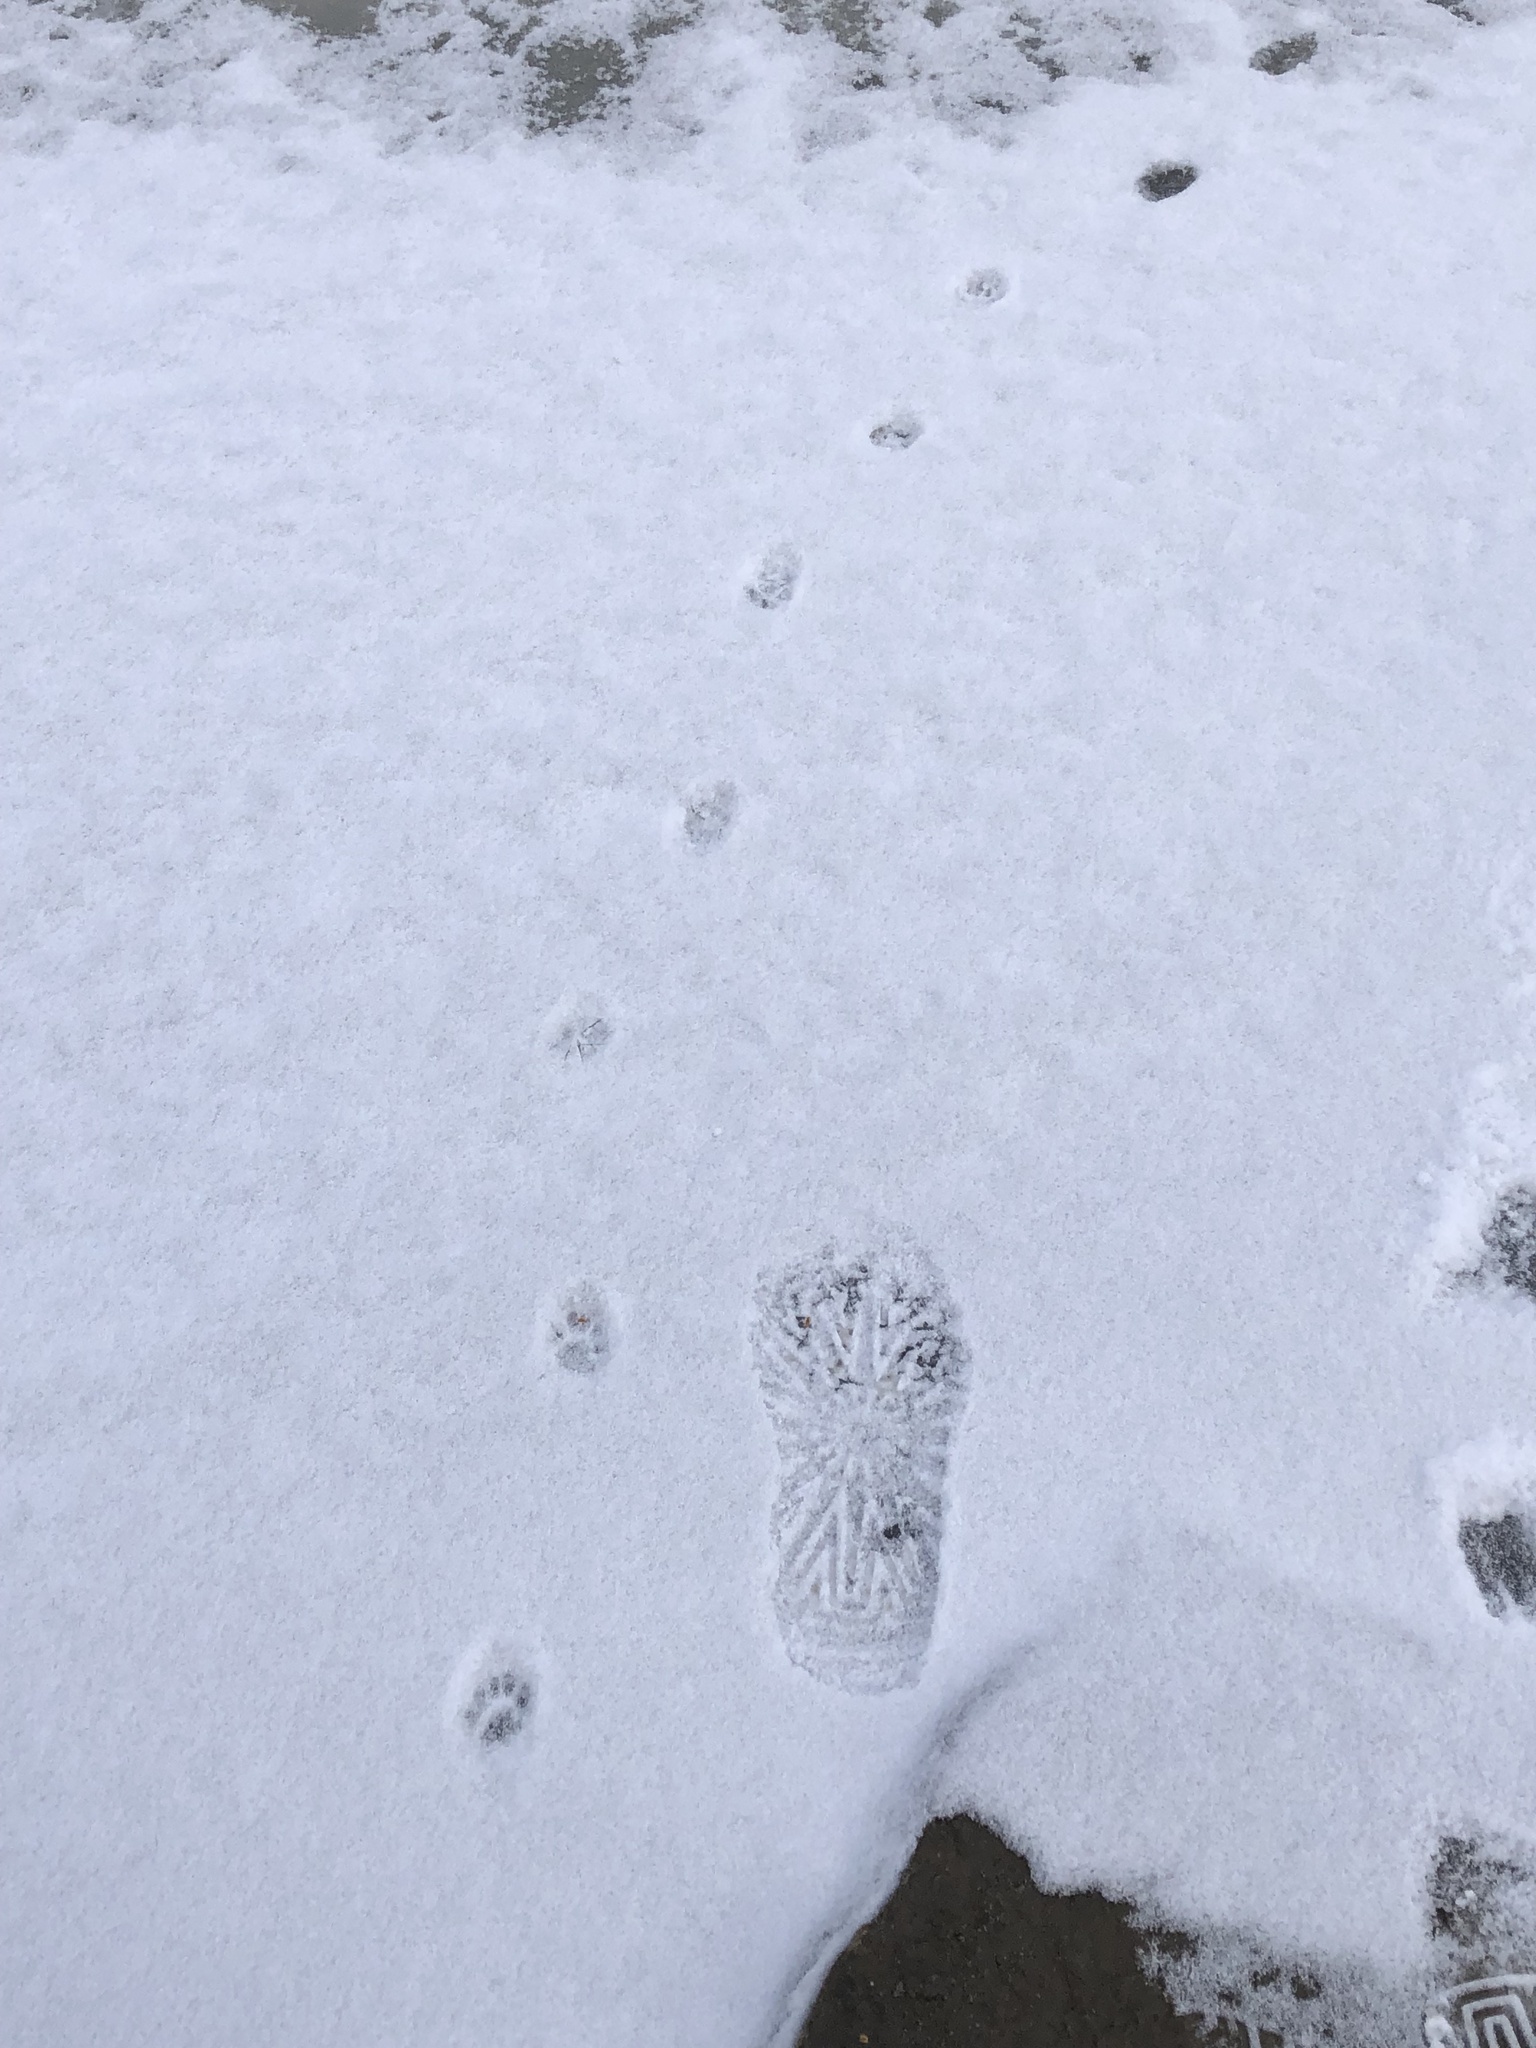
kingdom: Animalia
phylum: Chordata
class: Mammalia
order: Carnivora
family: Felidae
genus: Felis
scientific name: Felis catus
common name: Domestic cat
